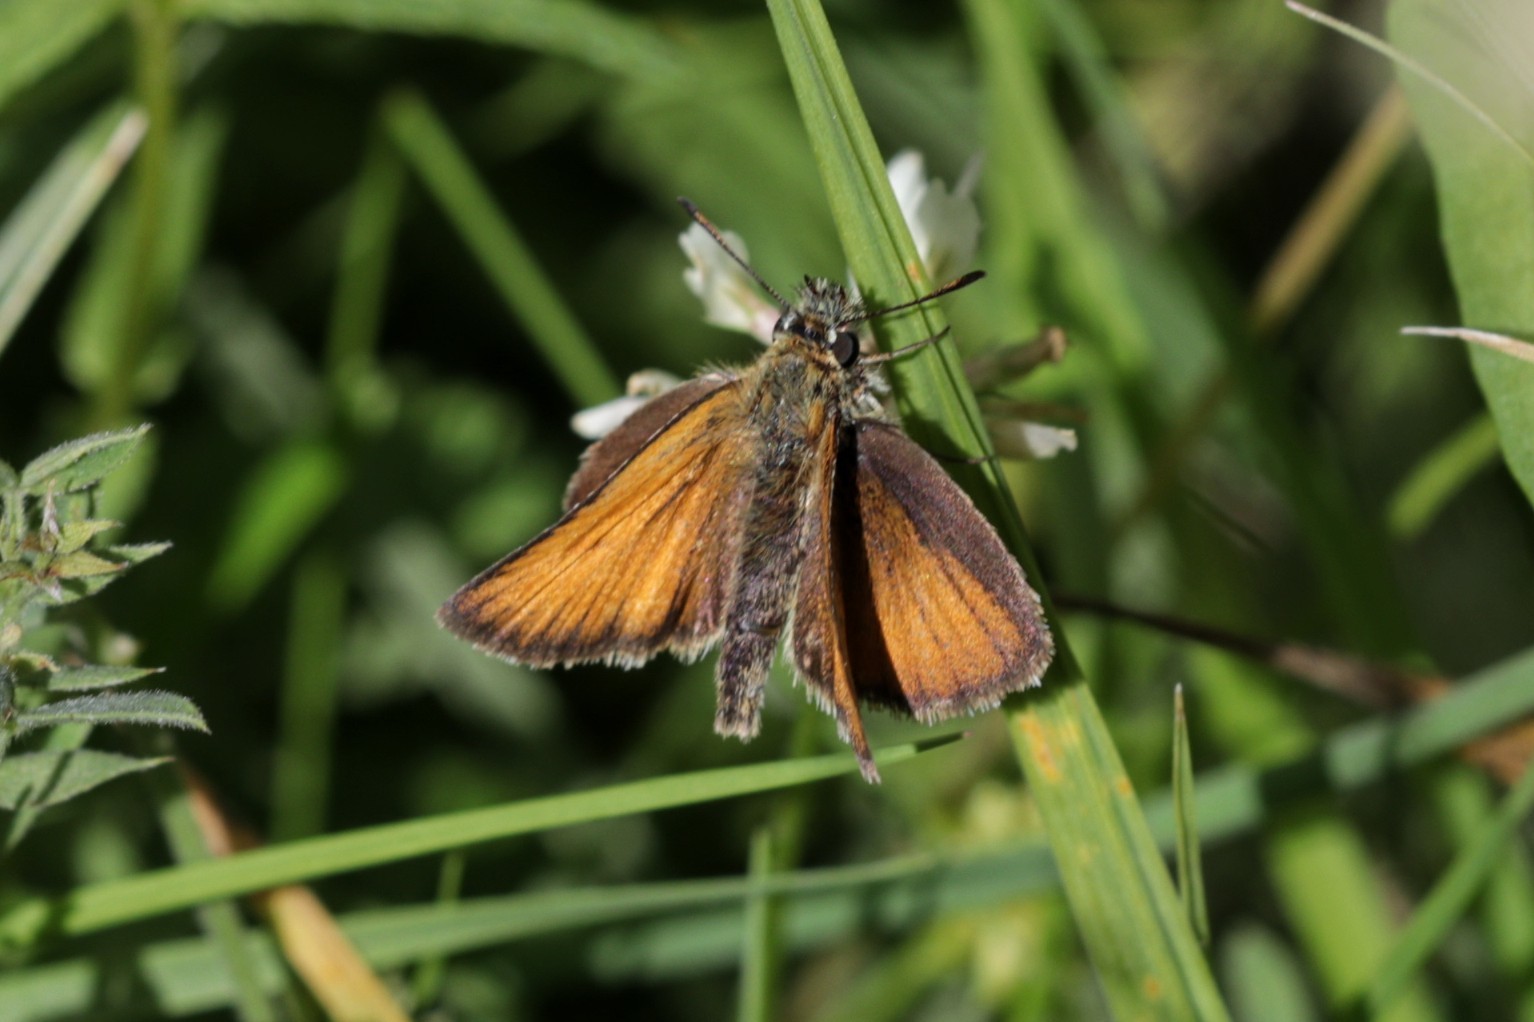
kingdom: Animalia
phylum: Arthropoda
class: Insecta
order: Lepidoptera
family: Hesperiidae
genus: Thymelicus
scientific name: Thymelicus lineola
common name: Essex skipper
